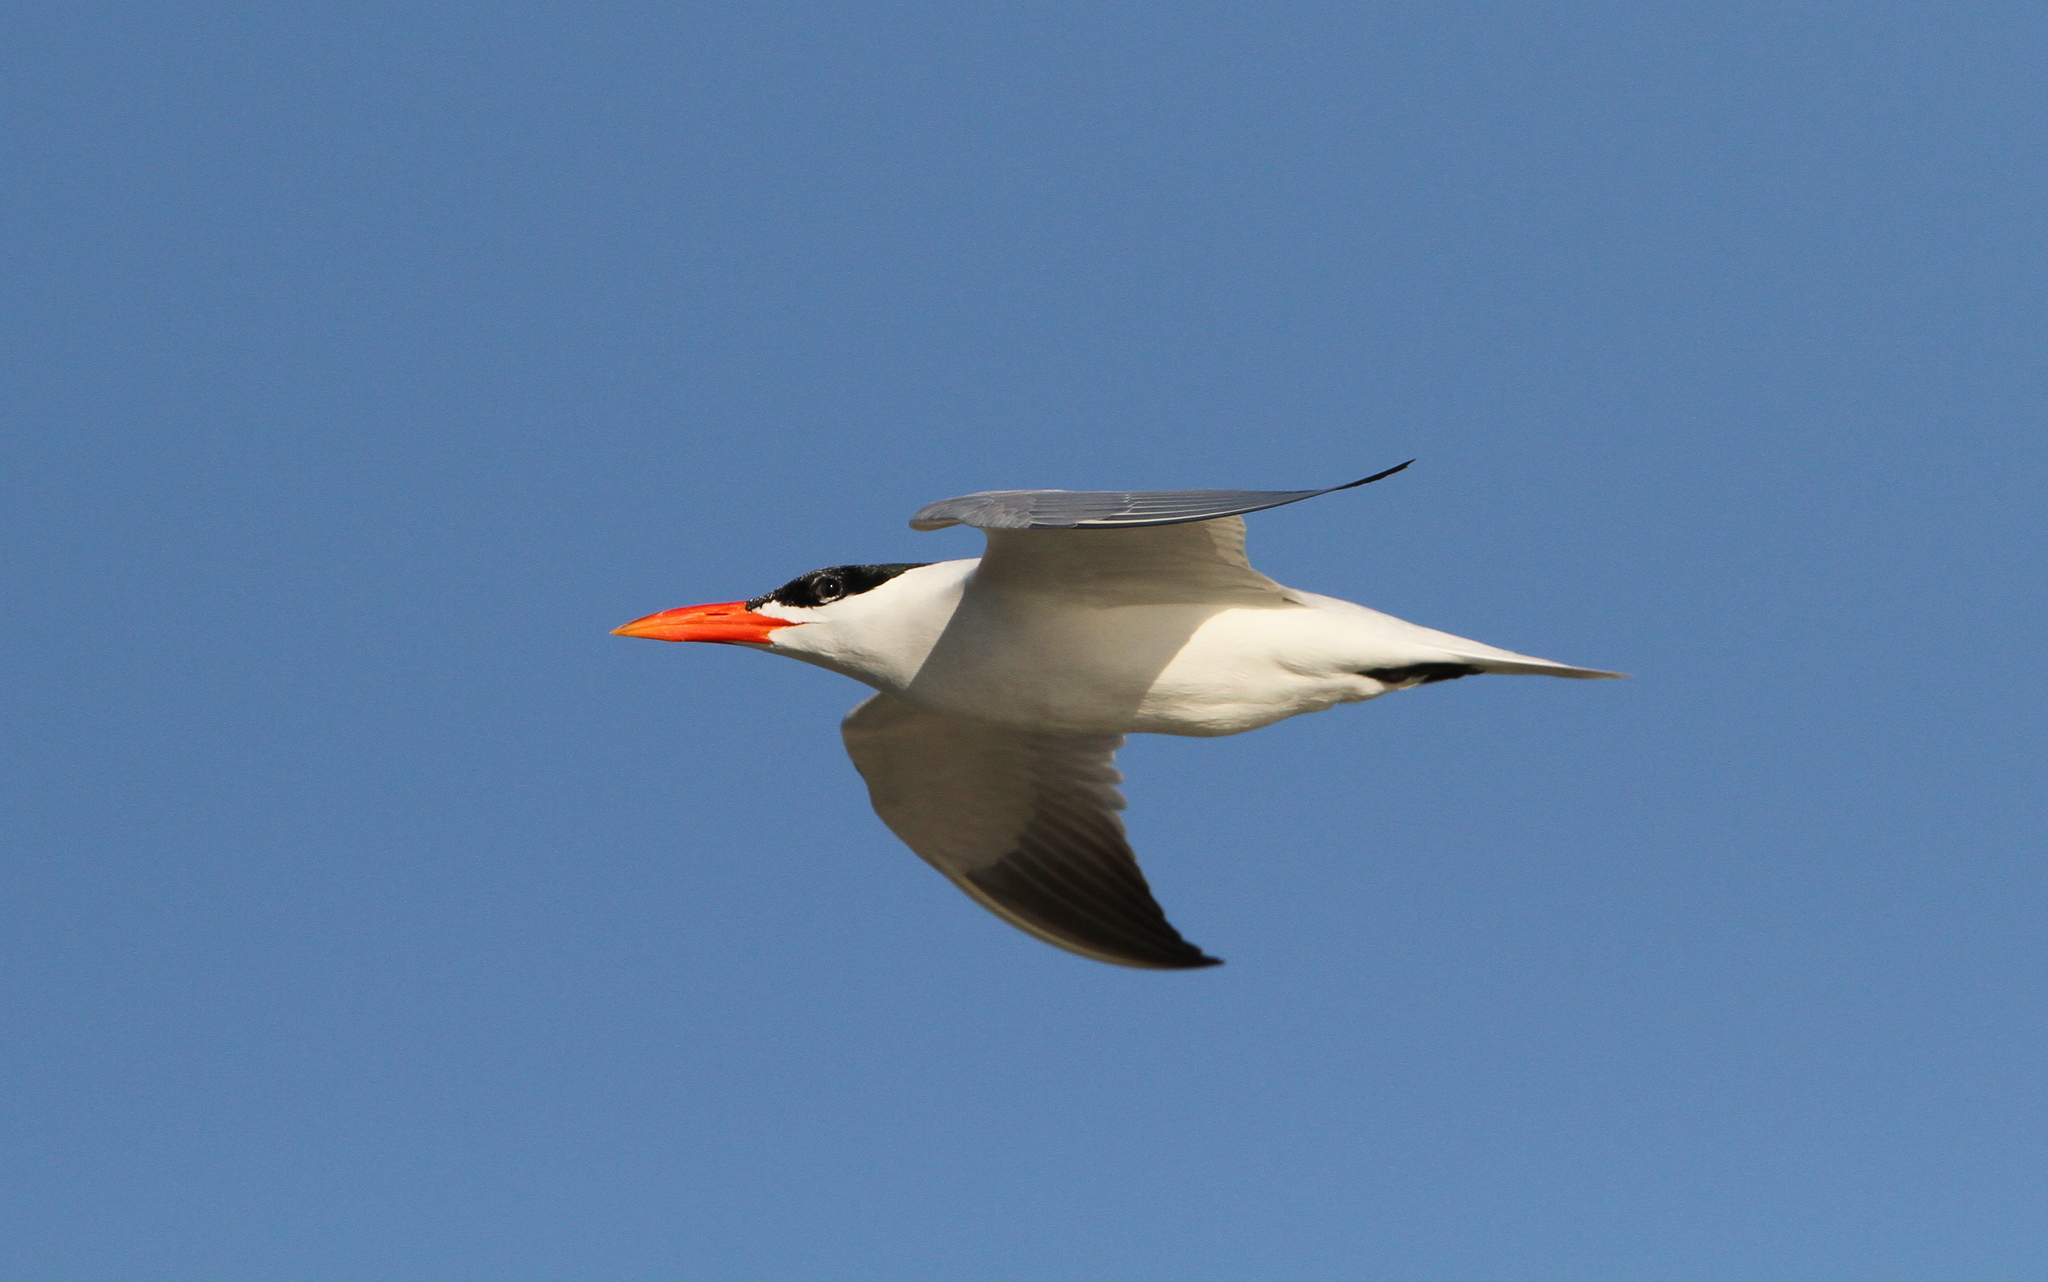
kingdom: Animalia
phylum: Chordata
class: Aves
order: Charadriiformes
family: Laridae
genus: Hydroprogne
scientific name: Hydroprogne caspia
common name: Caspian tern
